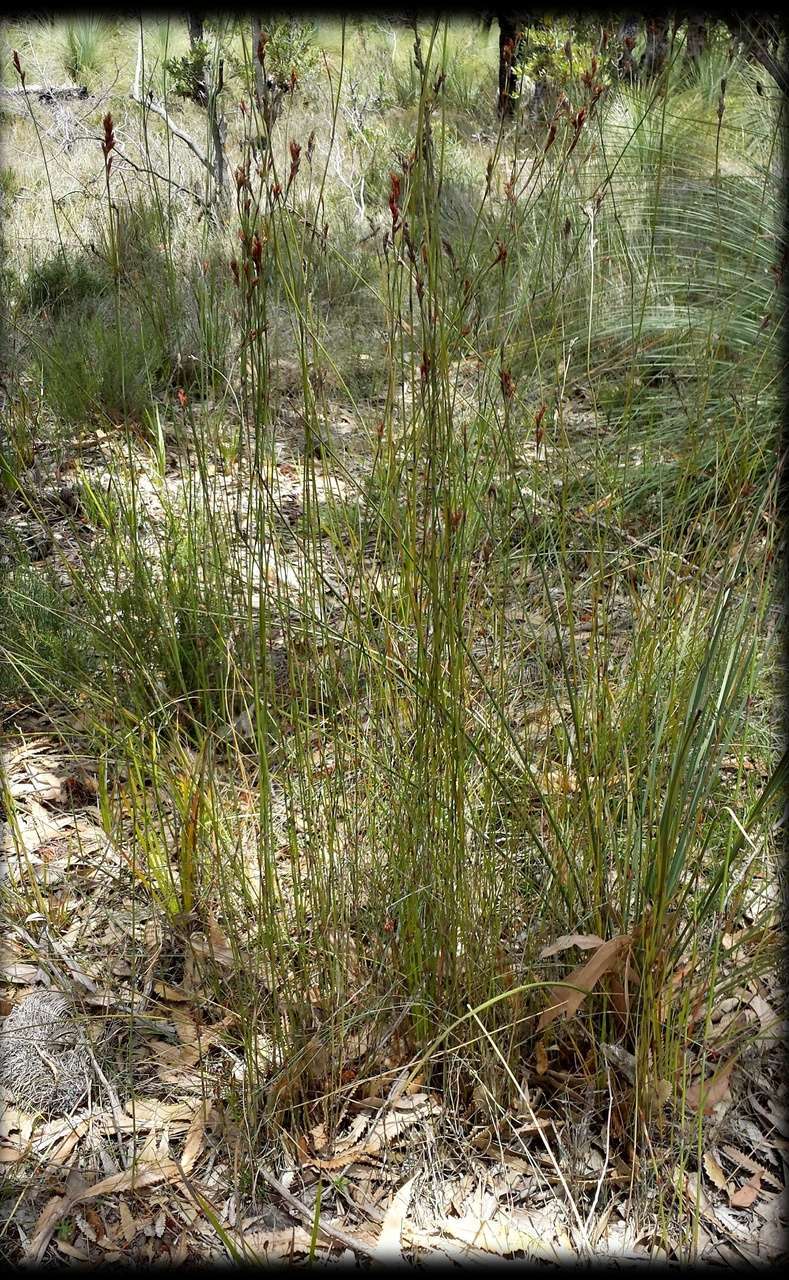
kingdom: Plantae
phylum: Tracheophyta
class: Liliopsida
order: Poales
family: Restionaceae
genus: Apodasmia
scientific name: Apodasmia brownii
